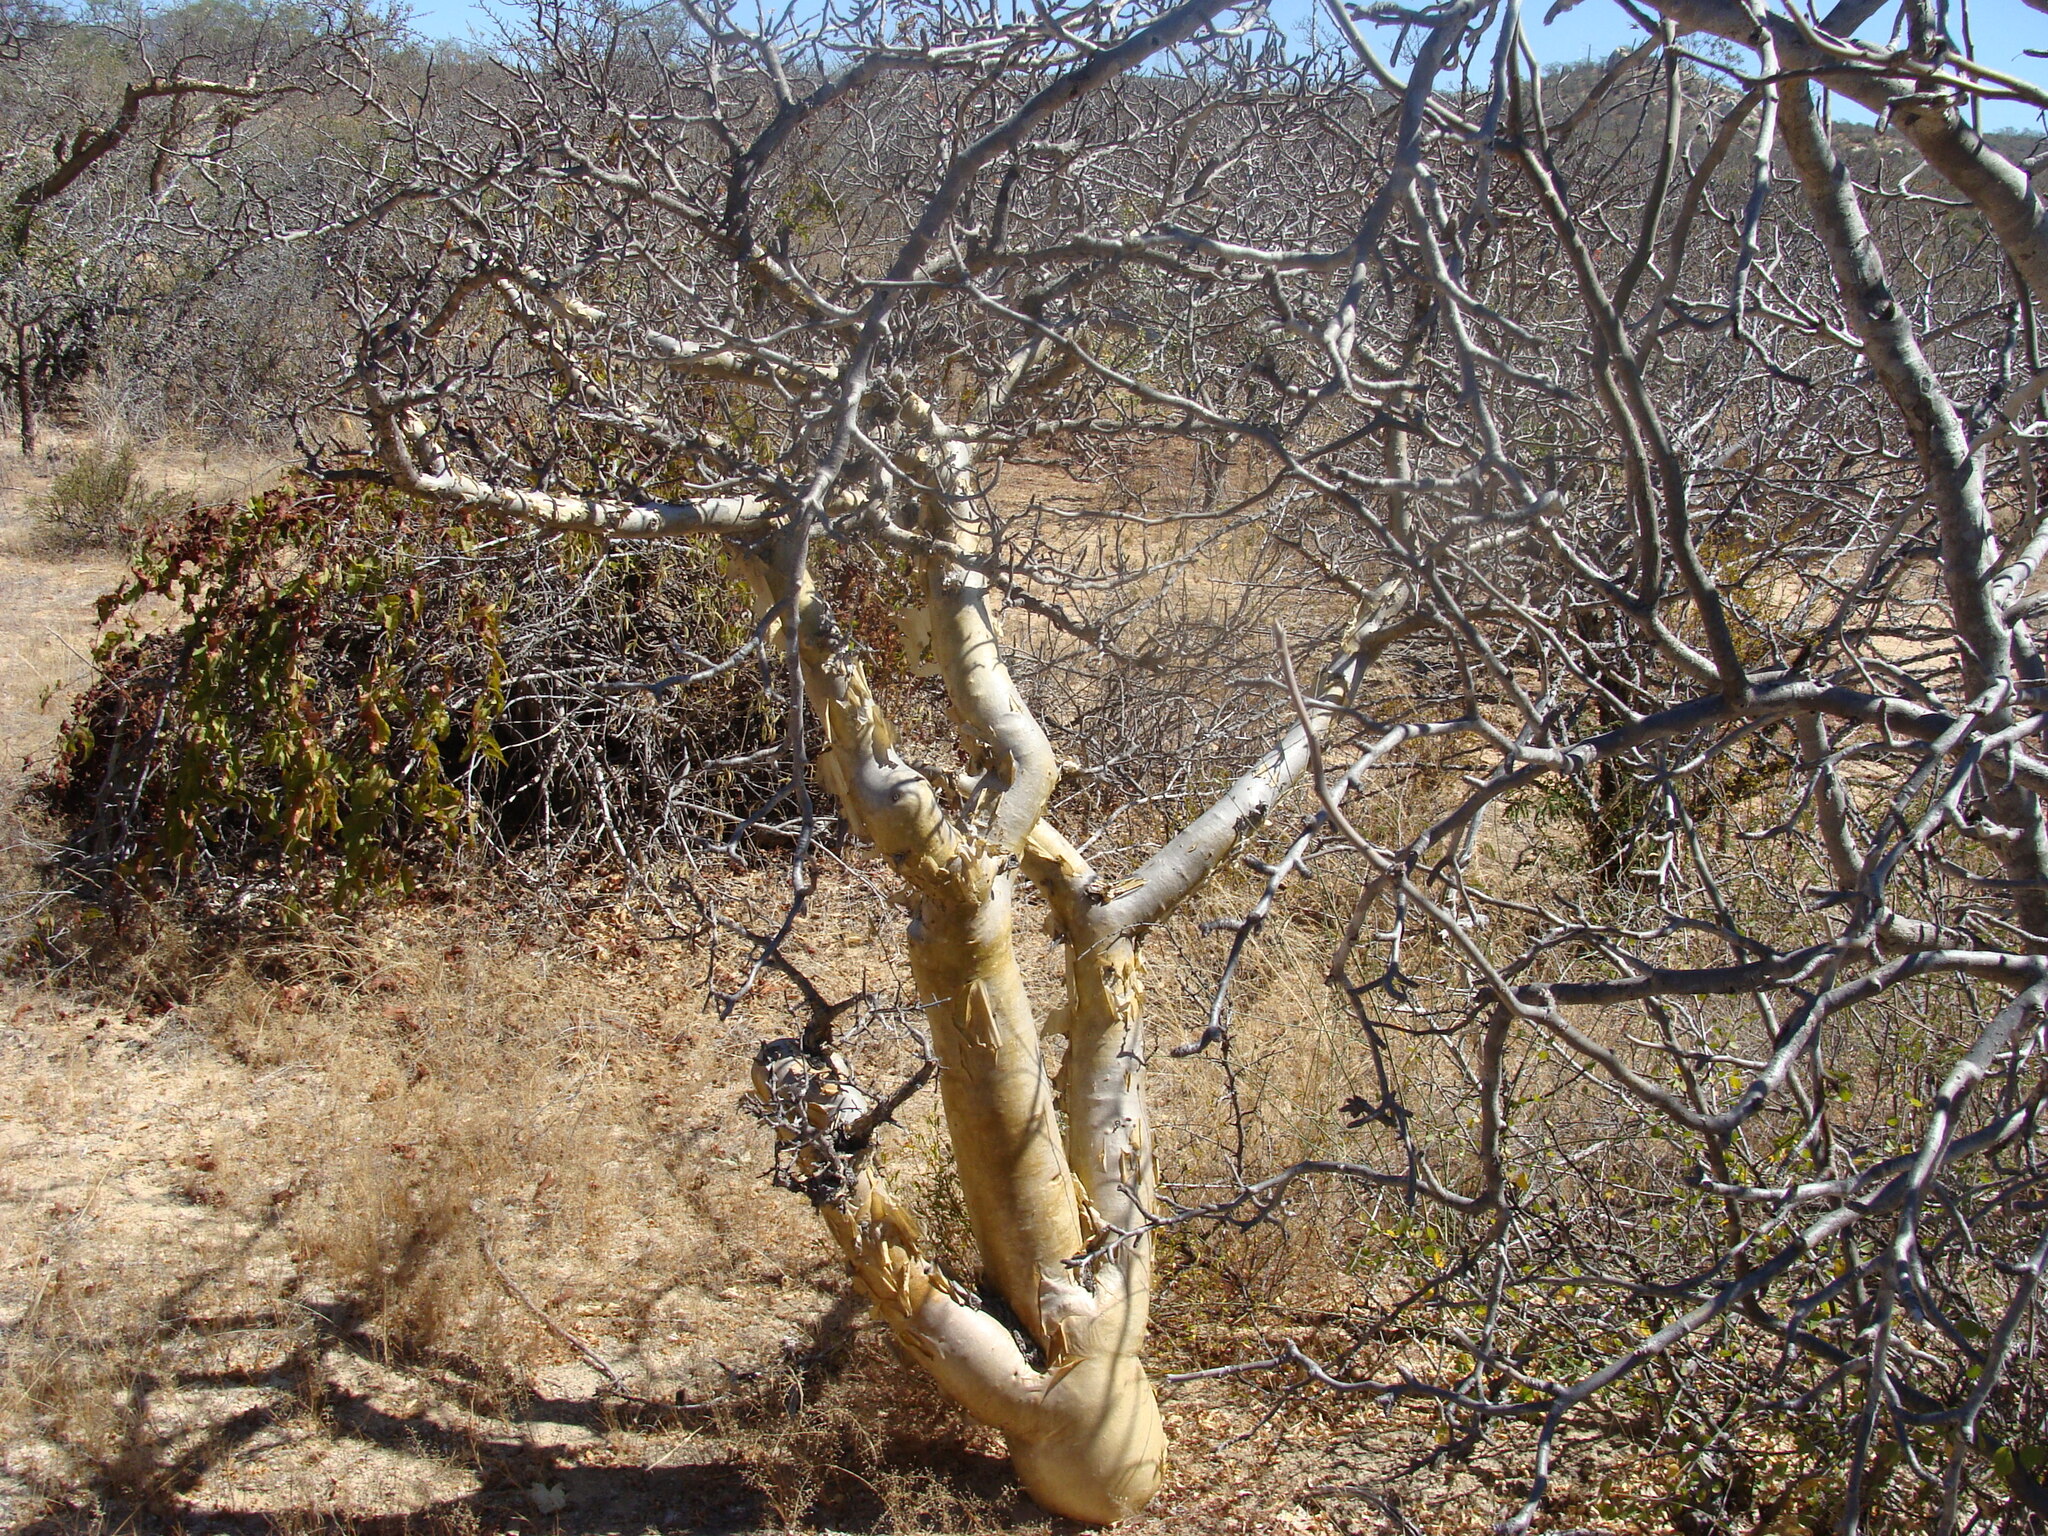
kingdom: Plantae
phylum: Tracheophyta
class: Magnoliopsida
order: Sapindales
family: Burseraceae
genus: Bursera
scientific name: Bursera microphylla
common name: Elephant tree
